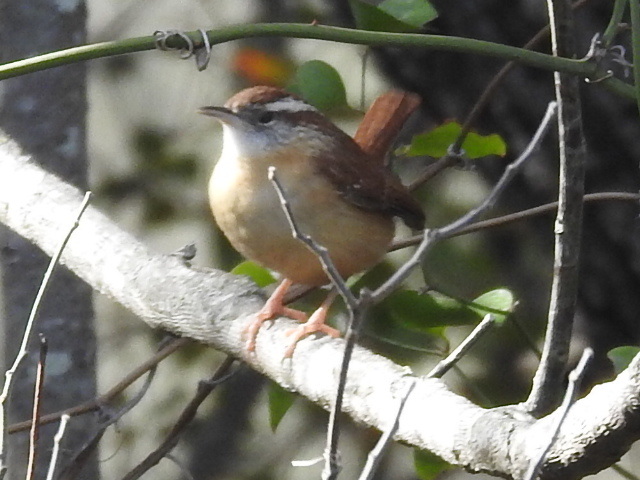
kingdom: Animalia
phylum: Chordata
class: Aves
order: Passeriformes
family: Troglodytidae
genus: Thryothorus
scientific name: Thryothorus ludovicianus
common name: Carolina wren
